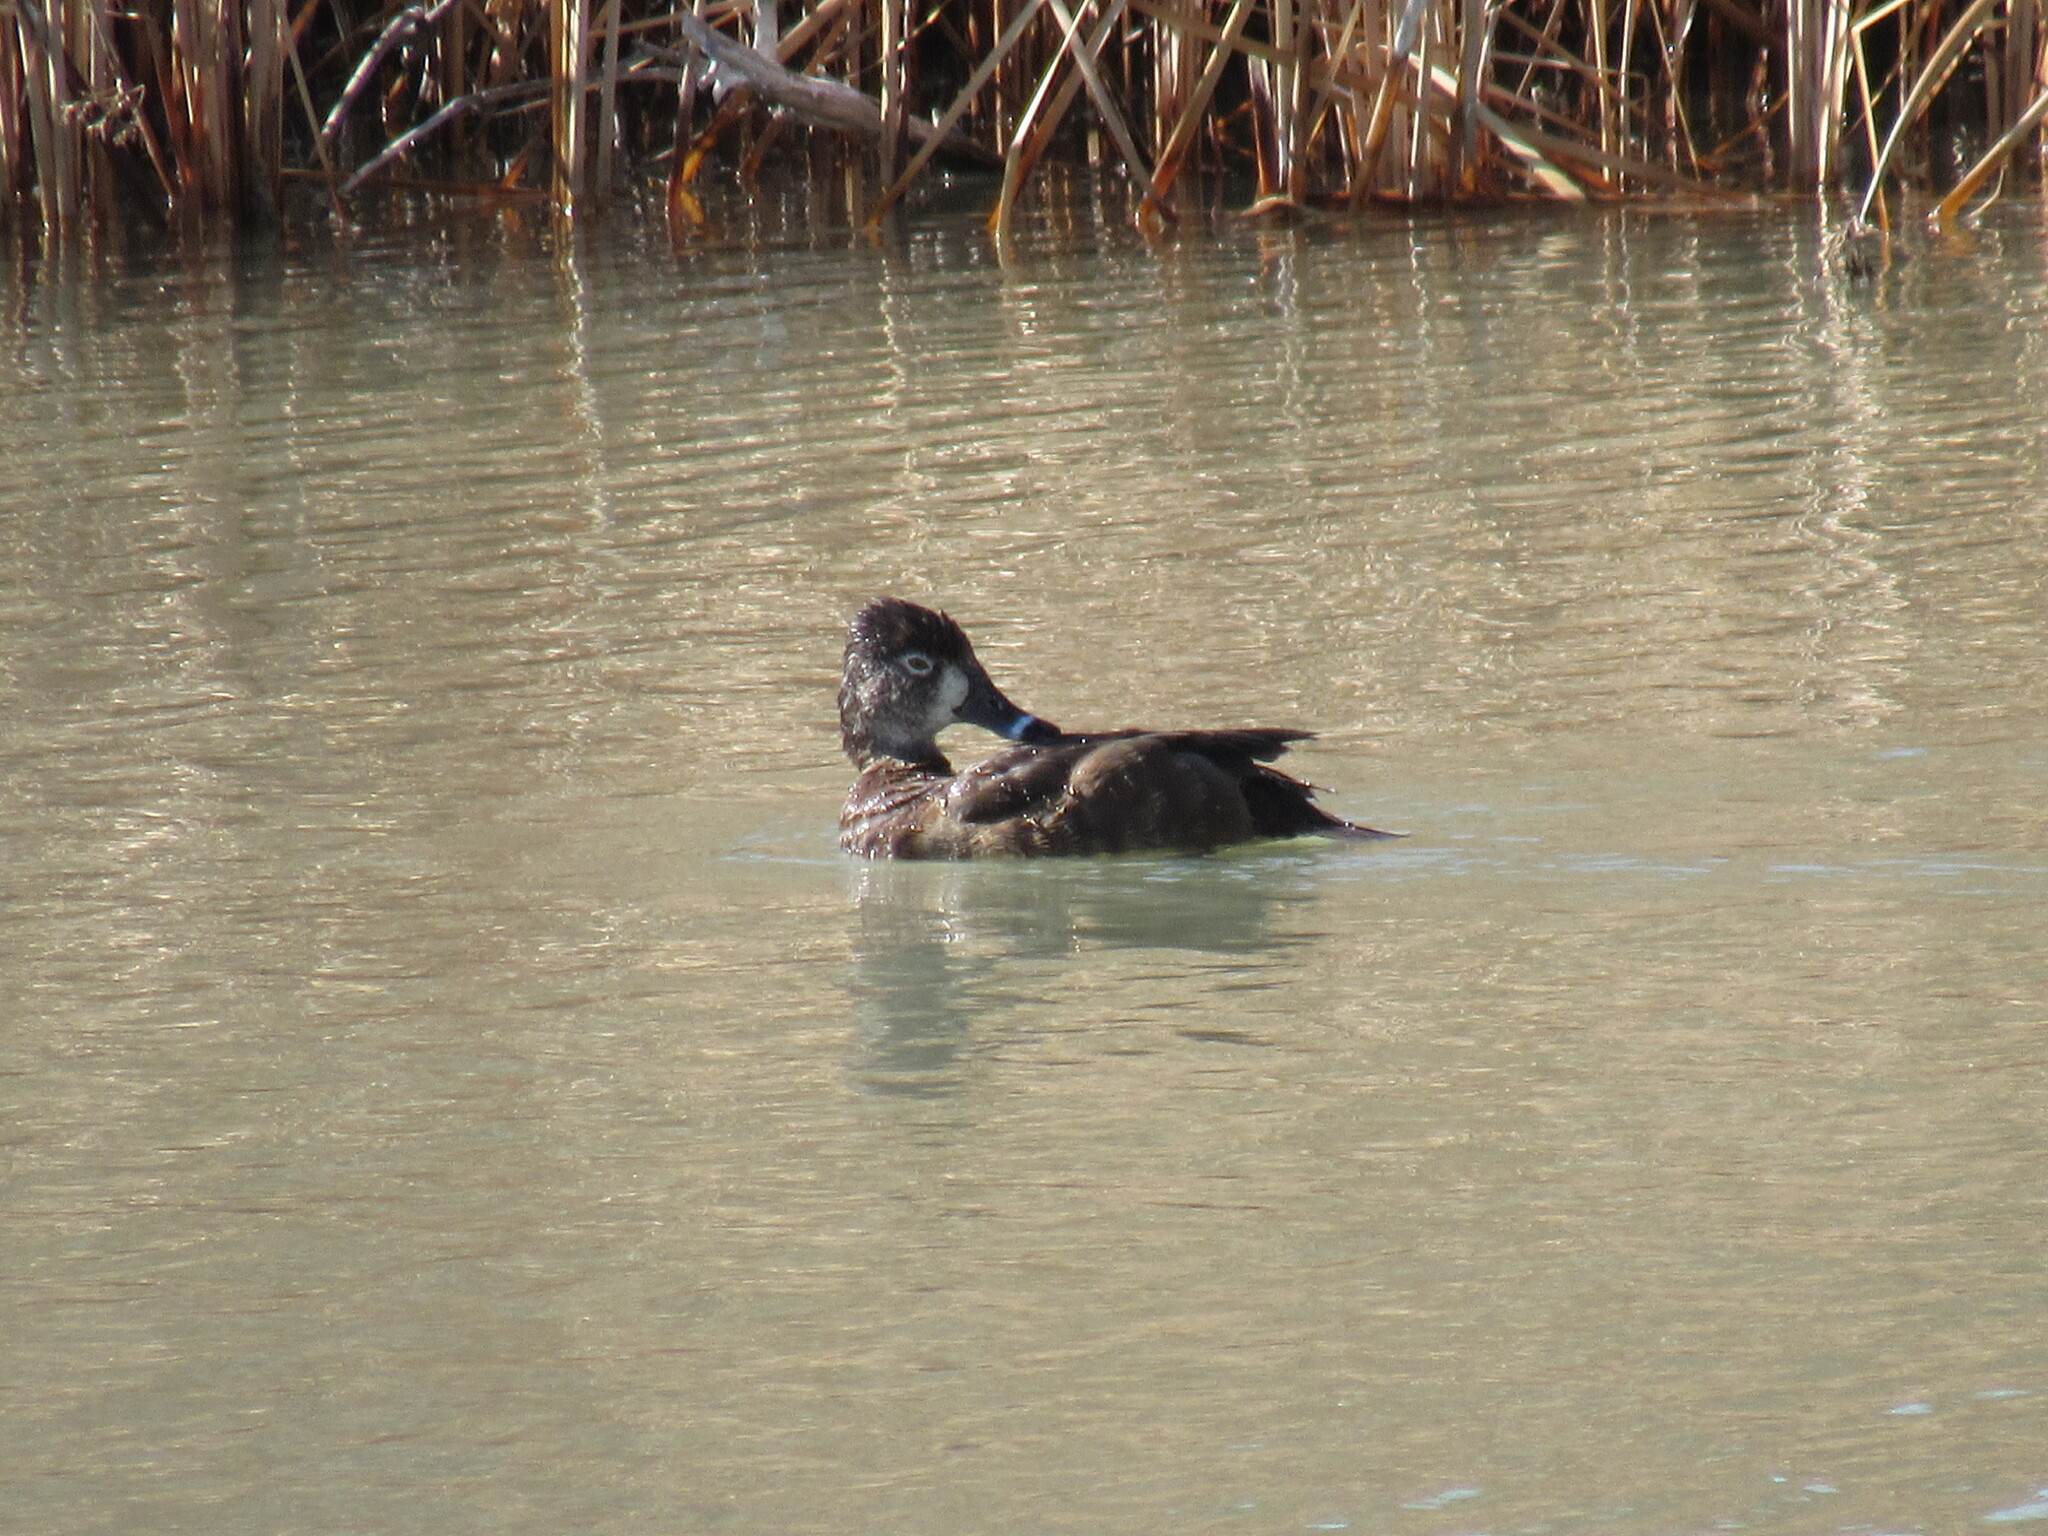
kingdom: Animalia
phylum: Chordata
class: Aves
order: Anseriformes
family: Anatidae
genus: Aythya
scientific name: Aythya collaris
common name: Ring-necked duck
